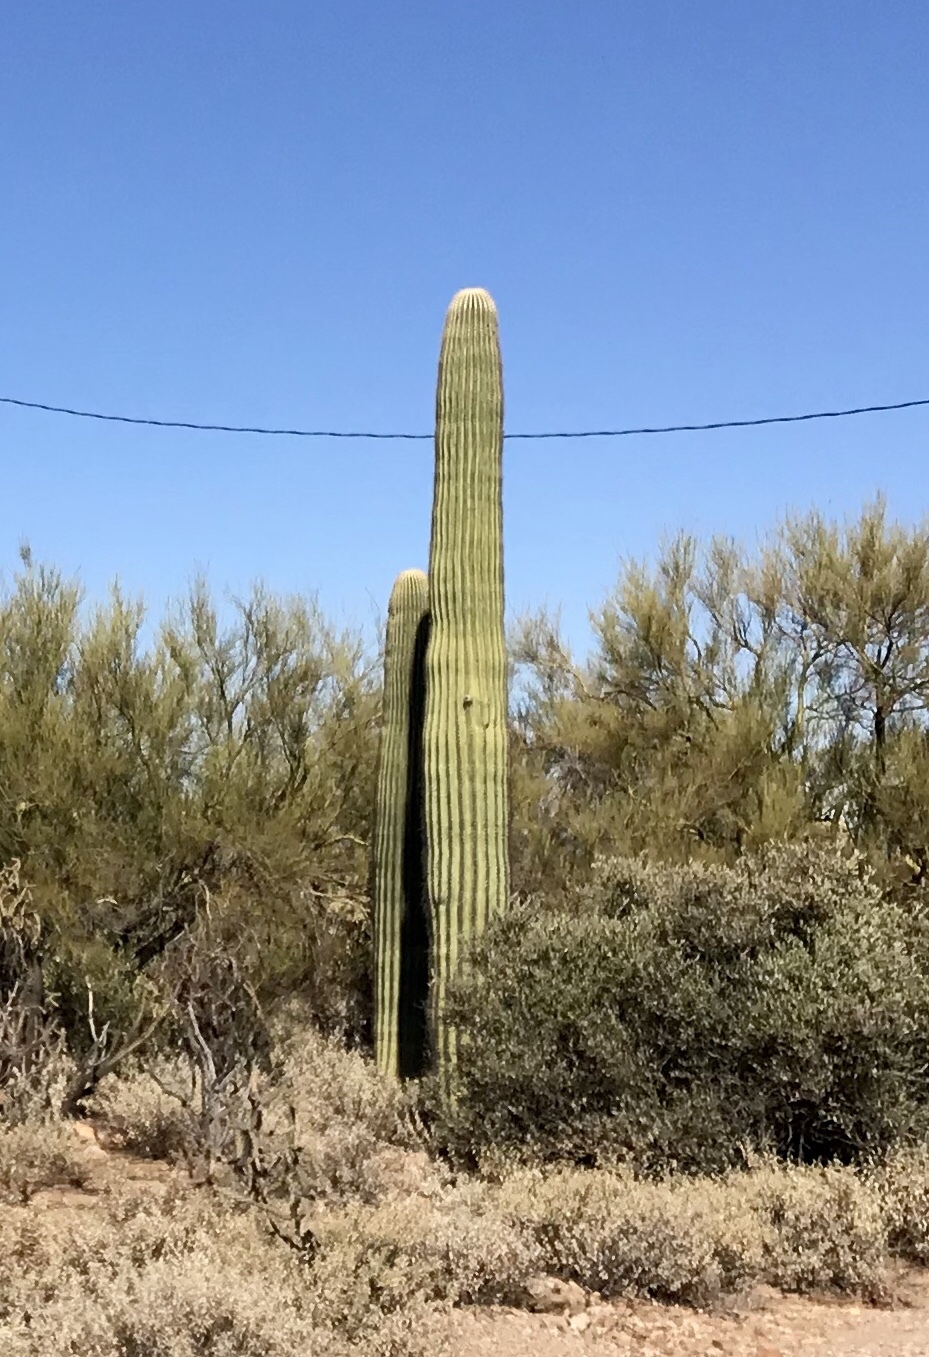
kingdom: Plantae
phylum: Tracheophyta
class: Magnoliopsida
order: Caryophyllales
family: Cactaceae
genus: Carnegiea
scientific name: Carnegiea gigantea
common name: Saguaro
